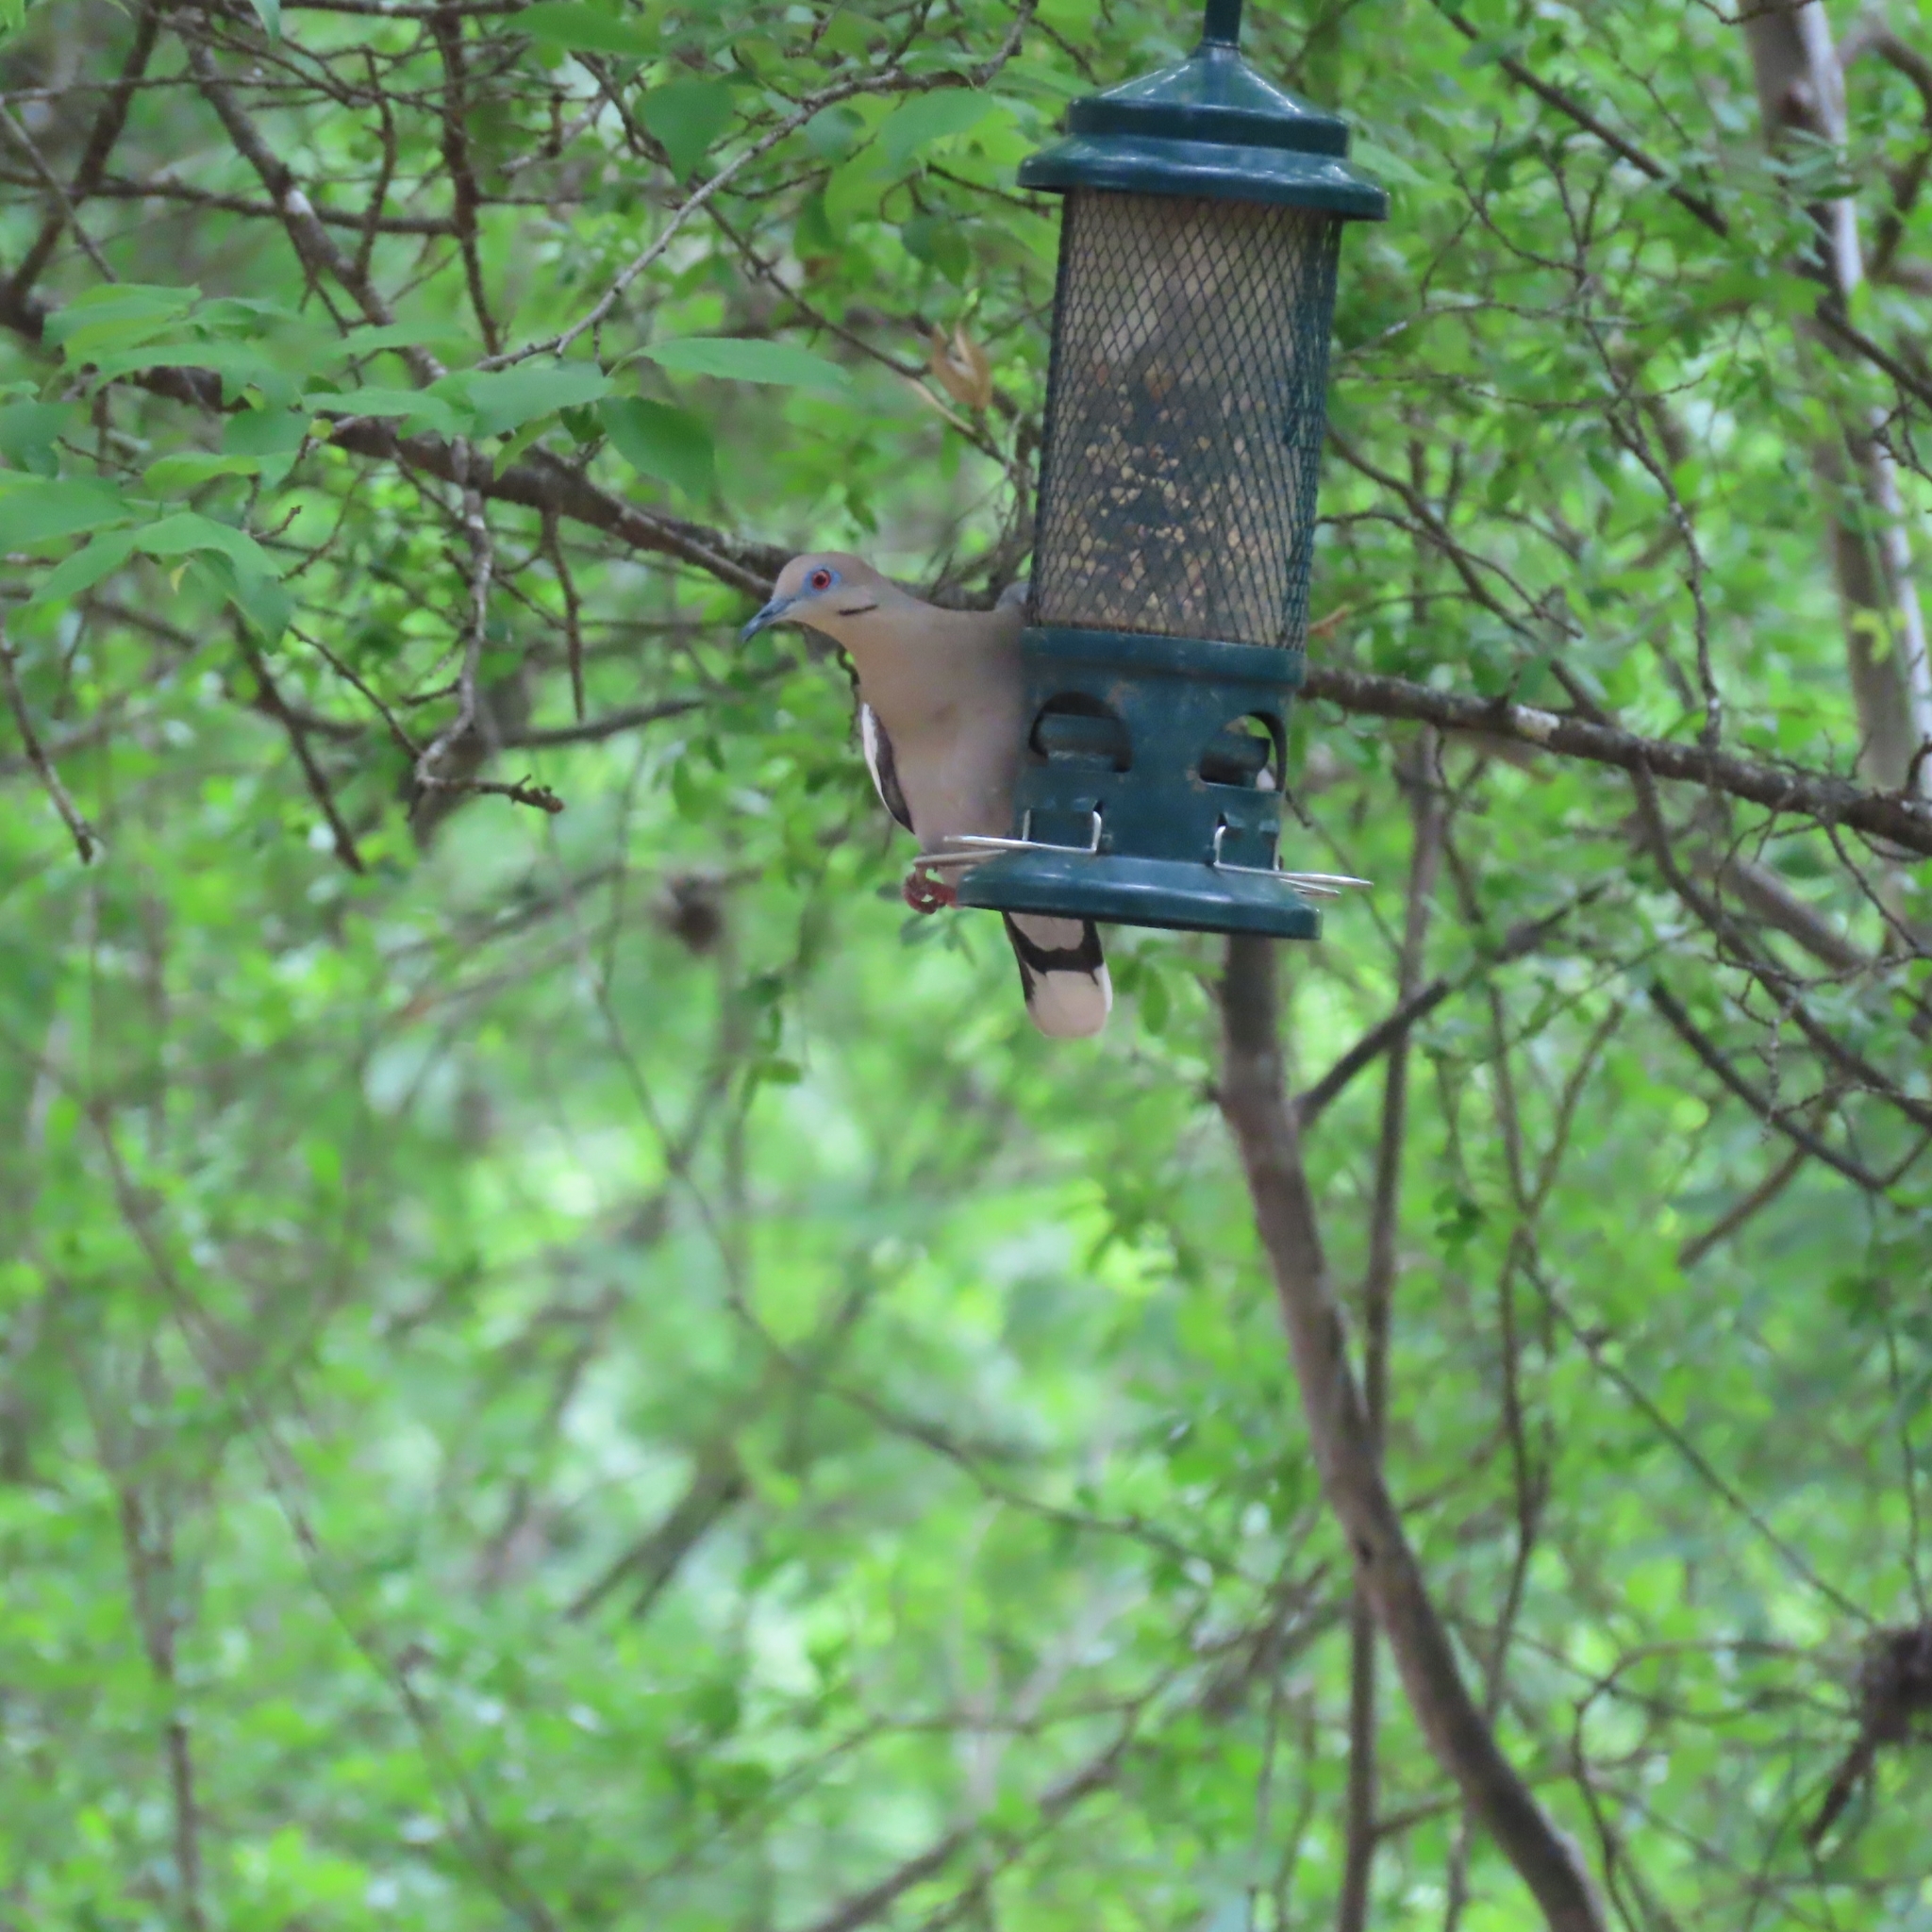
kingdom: Animalia
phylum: Chordata
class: Aves
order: Columbiformes
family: Columbidae
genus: Zenaida
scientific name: Zenaida asiatica
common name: White-winged dove
